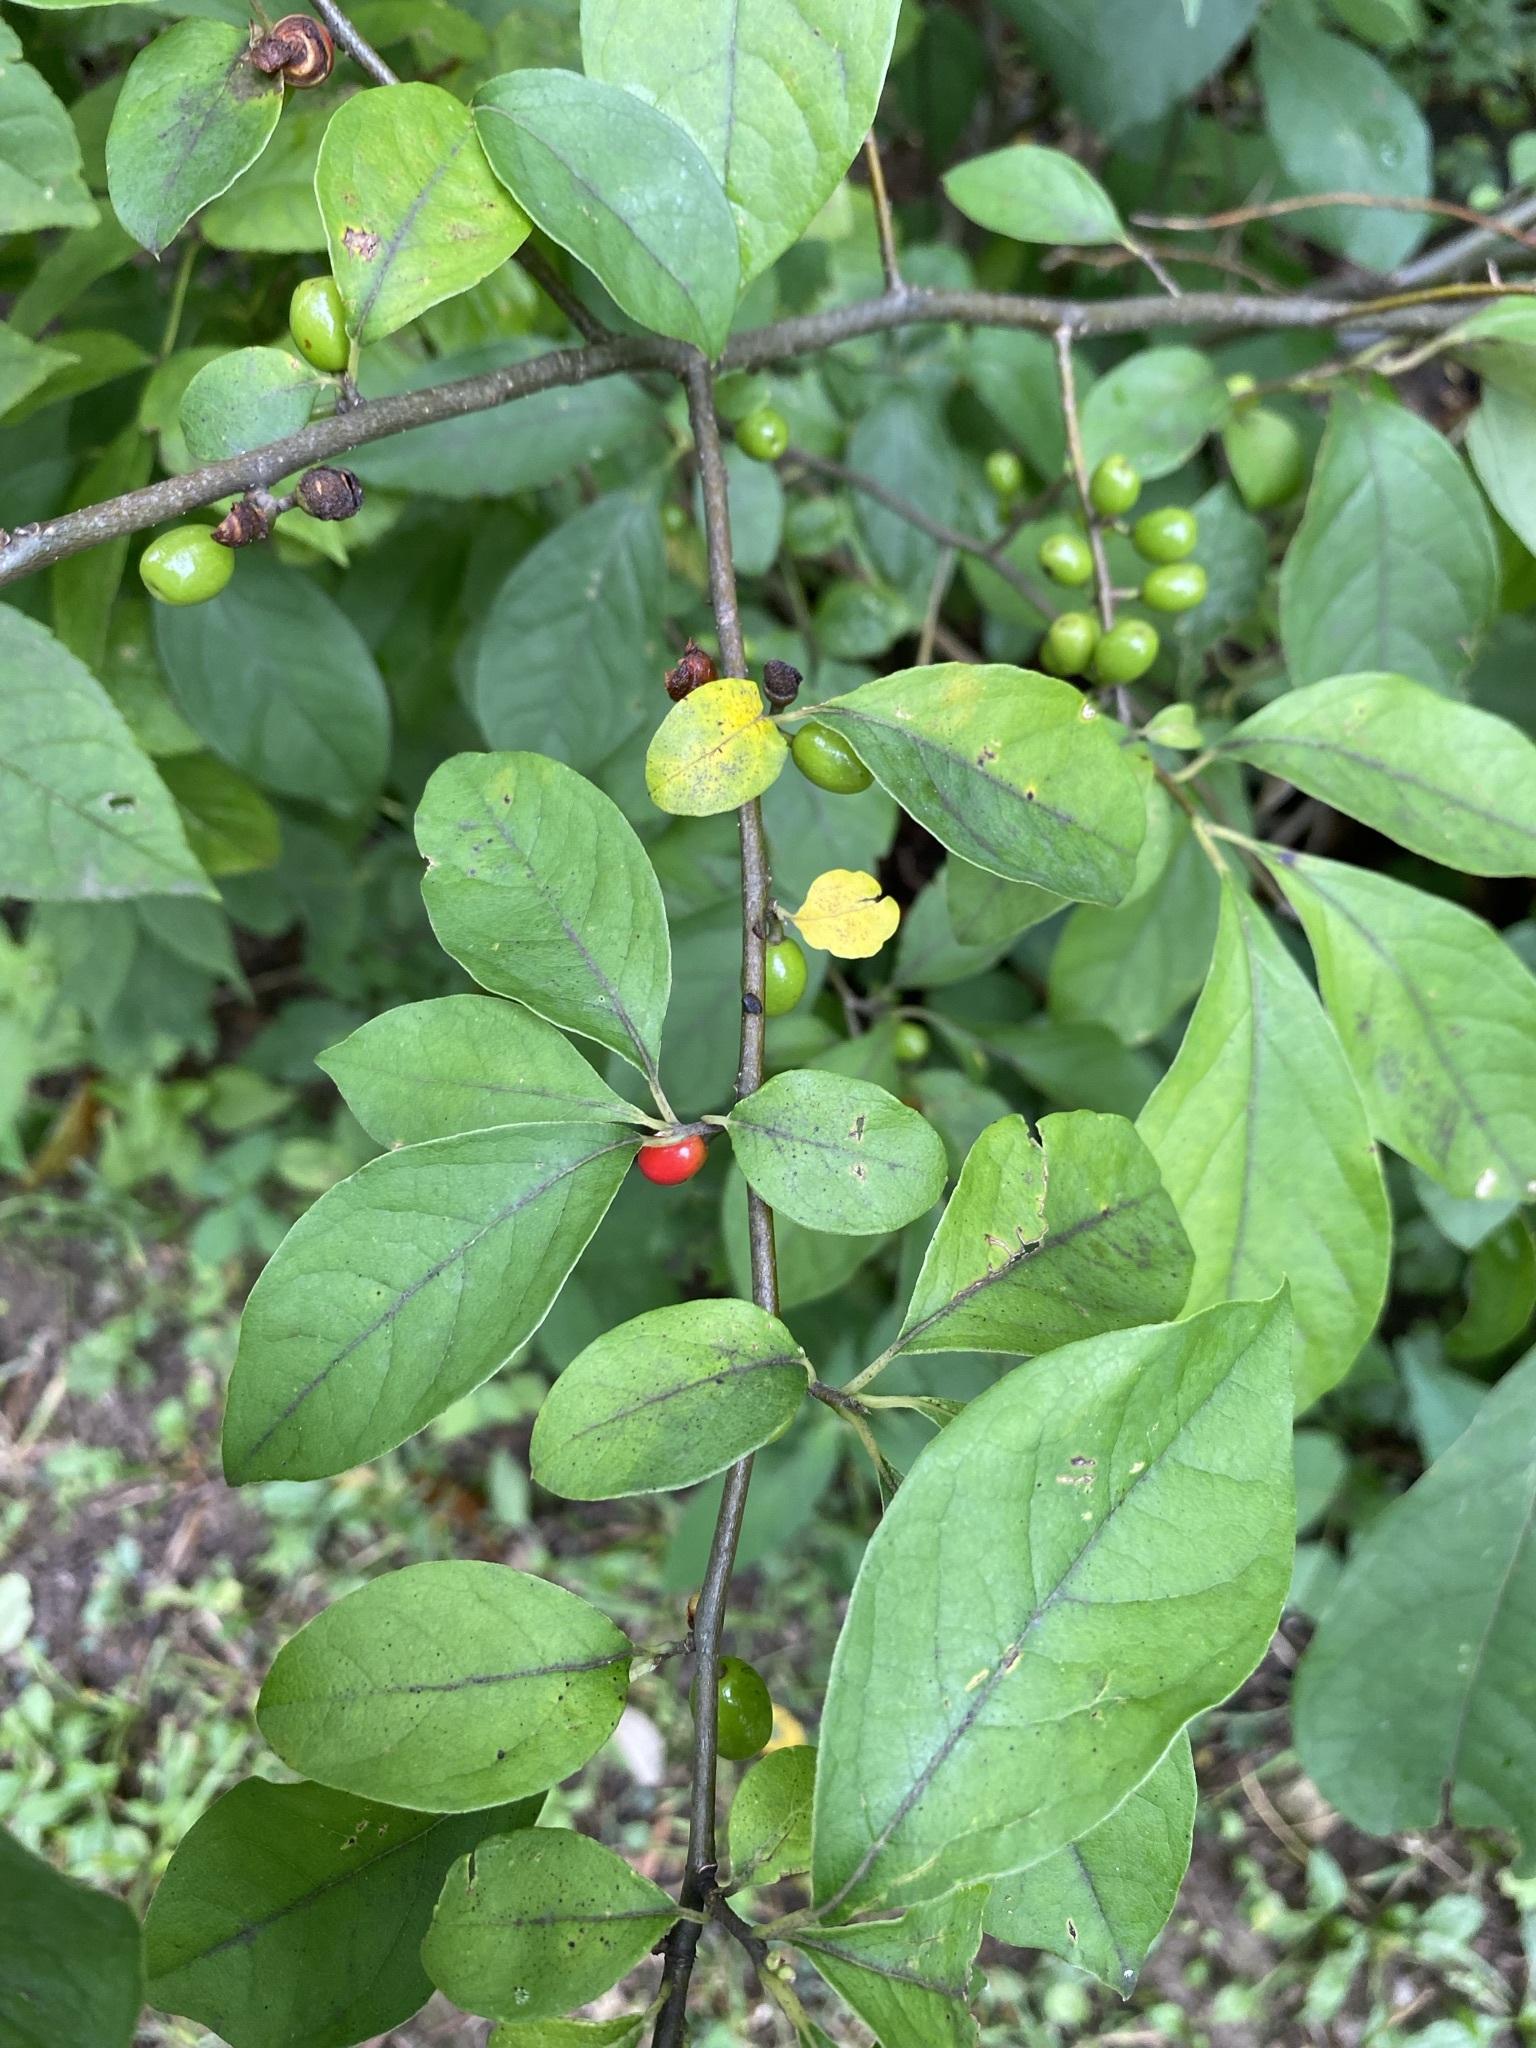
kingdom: Plantae
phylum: Tracheophyta
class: Magnoliopsida
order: Laurales
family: Lauraceae
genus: Lindera
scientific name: Lindera benzoin
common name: Spicebush
